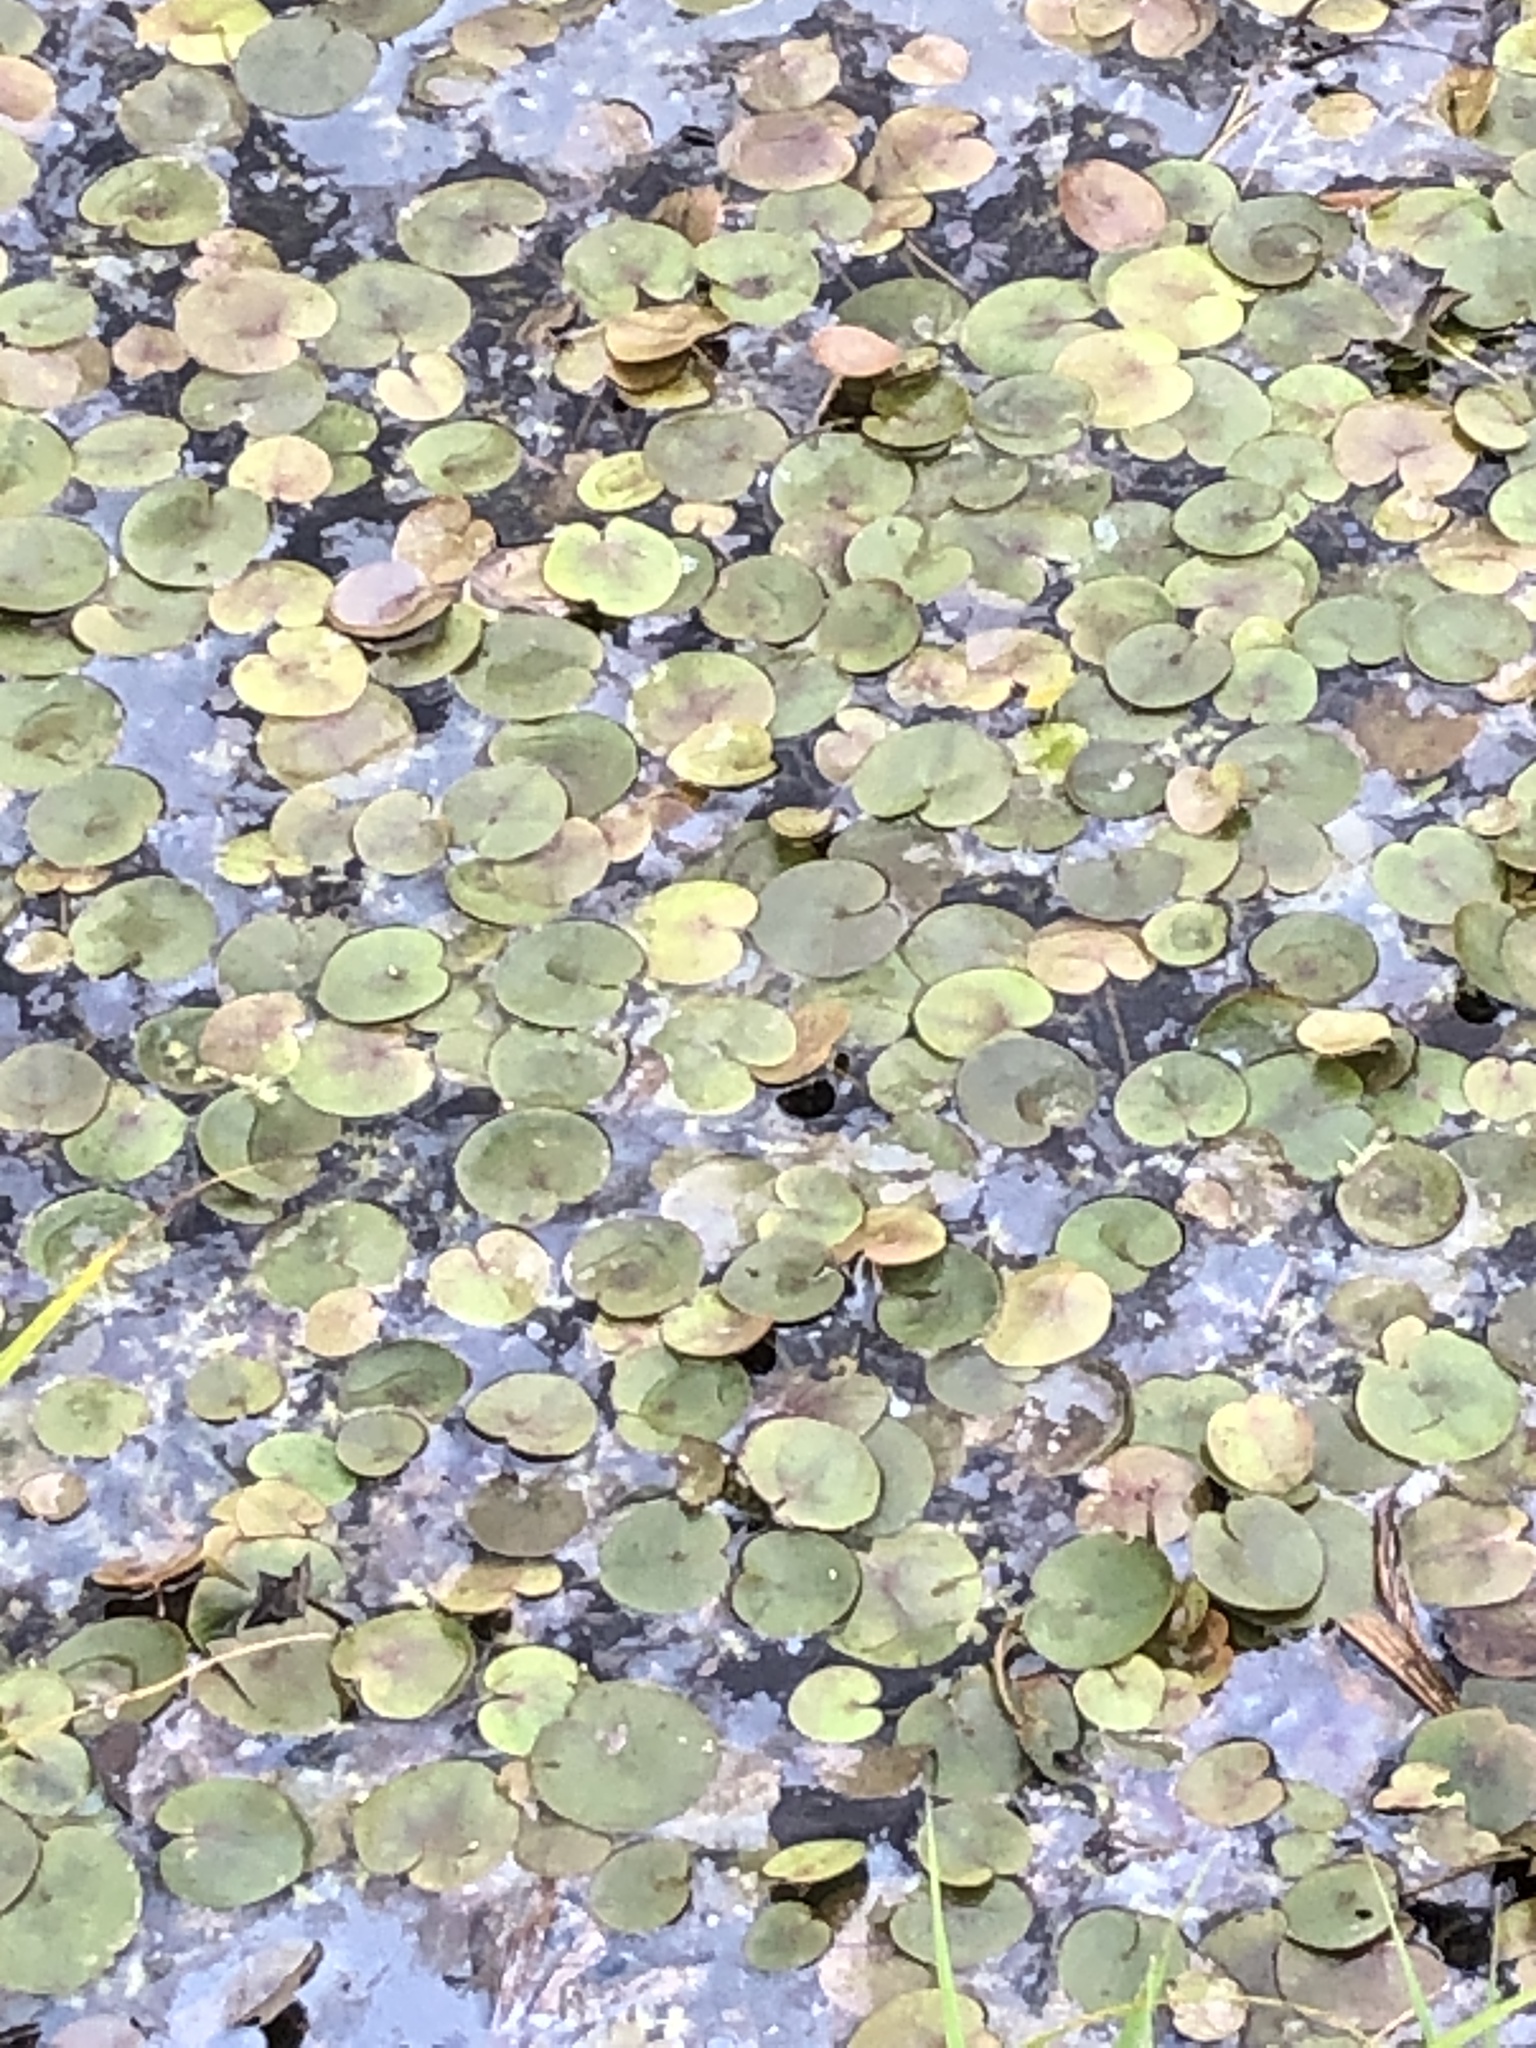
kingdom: Plantae
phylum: Tracheophyta
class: Liliopsida
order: Alismatales
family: Hydrocharitaceae
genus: Hydrocharis
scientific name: Hydrocharis morsus-ranae
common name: Frogbit
